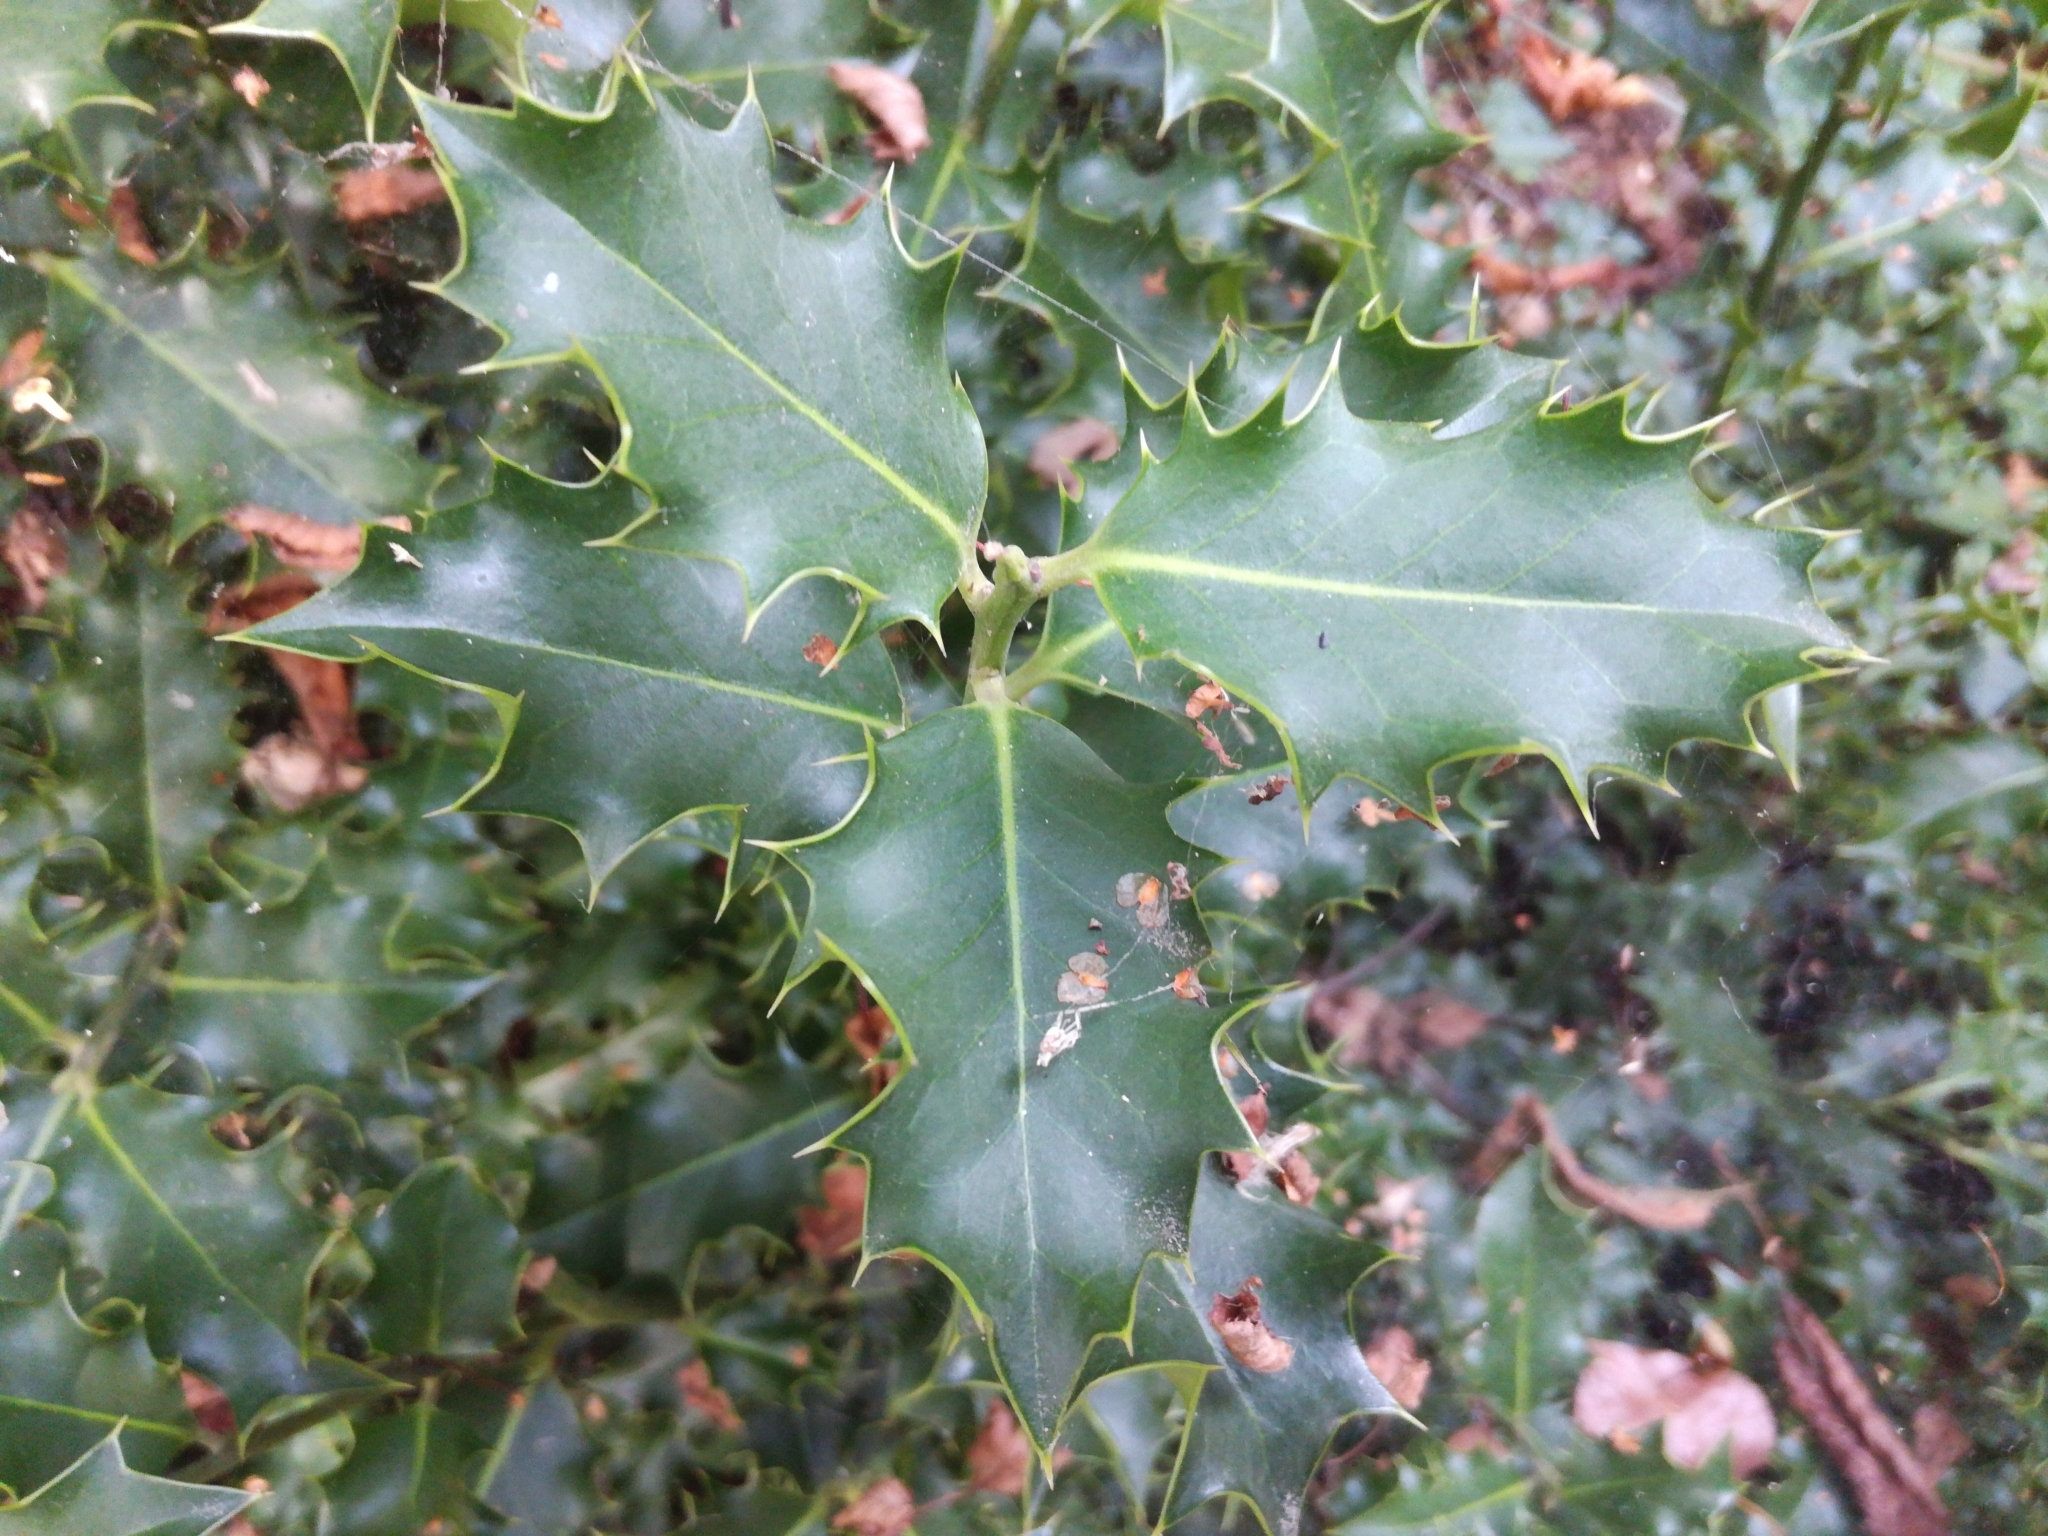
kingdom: Plantae
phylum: Tracheophyta
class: Magnoliopsida
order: Aquifoliales
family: Aquifoliaceae
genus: Ilex
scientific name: Ilex aquifolium
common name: English holly
